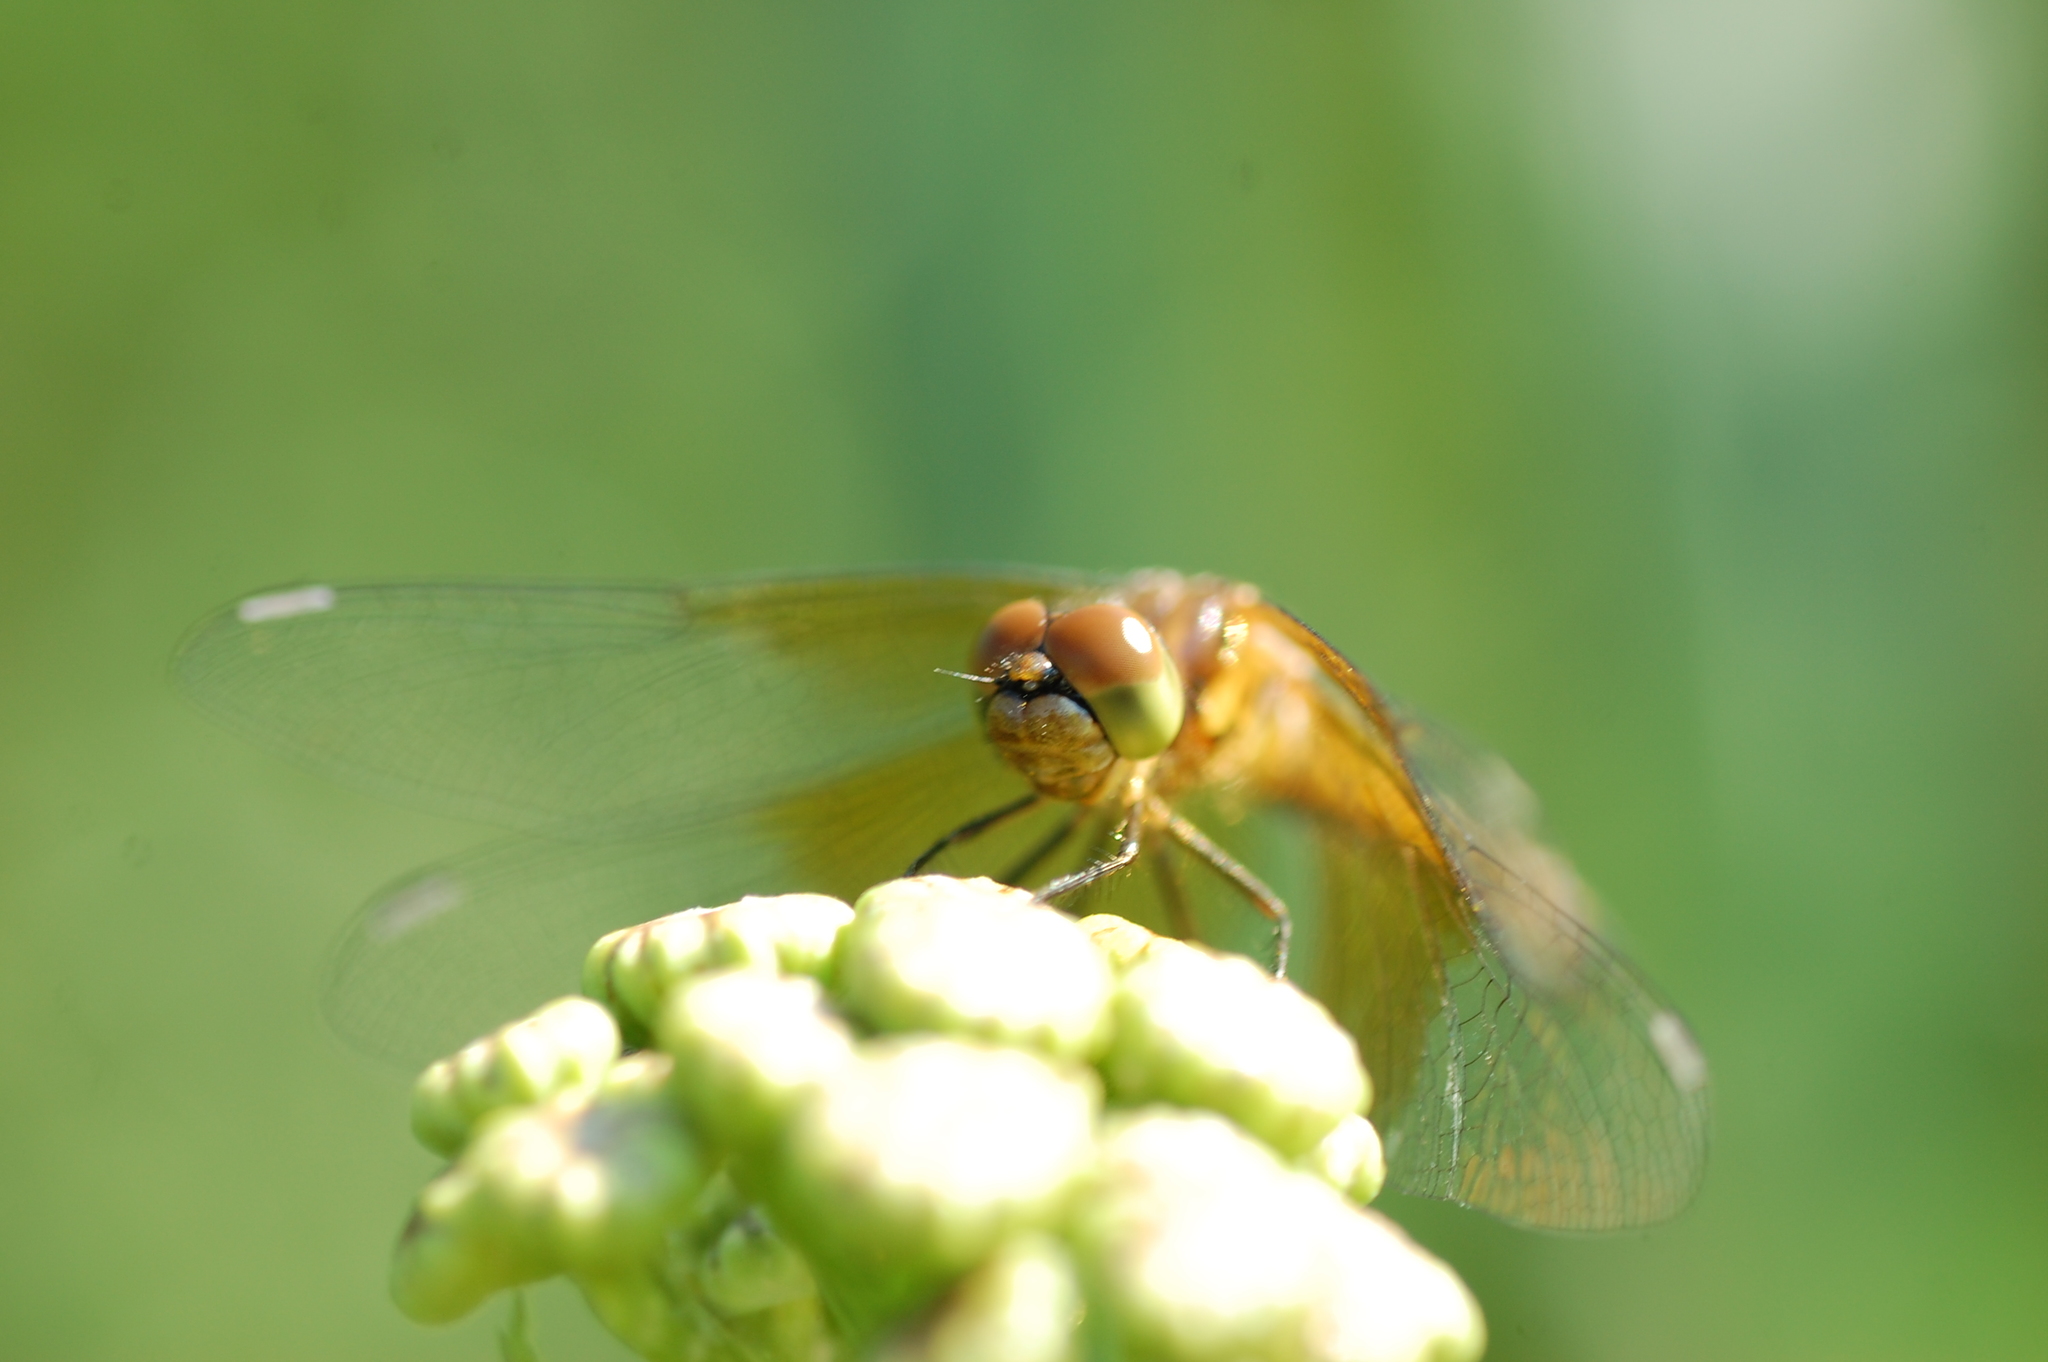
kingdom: Animalia
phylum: Arthropoda
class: Insecta
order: Odonata
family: Libellulidae
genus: Sympetrum
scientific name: Sympetrum semicinctum
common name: Band-winged meadowhawk
